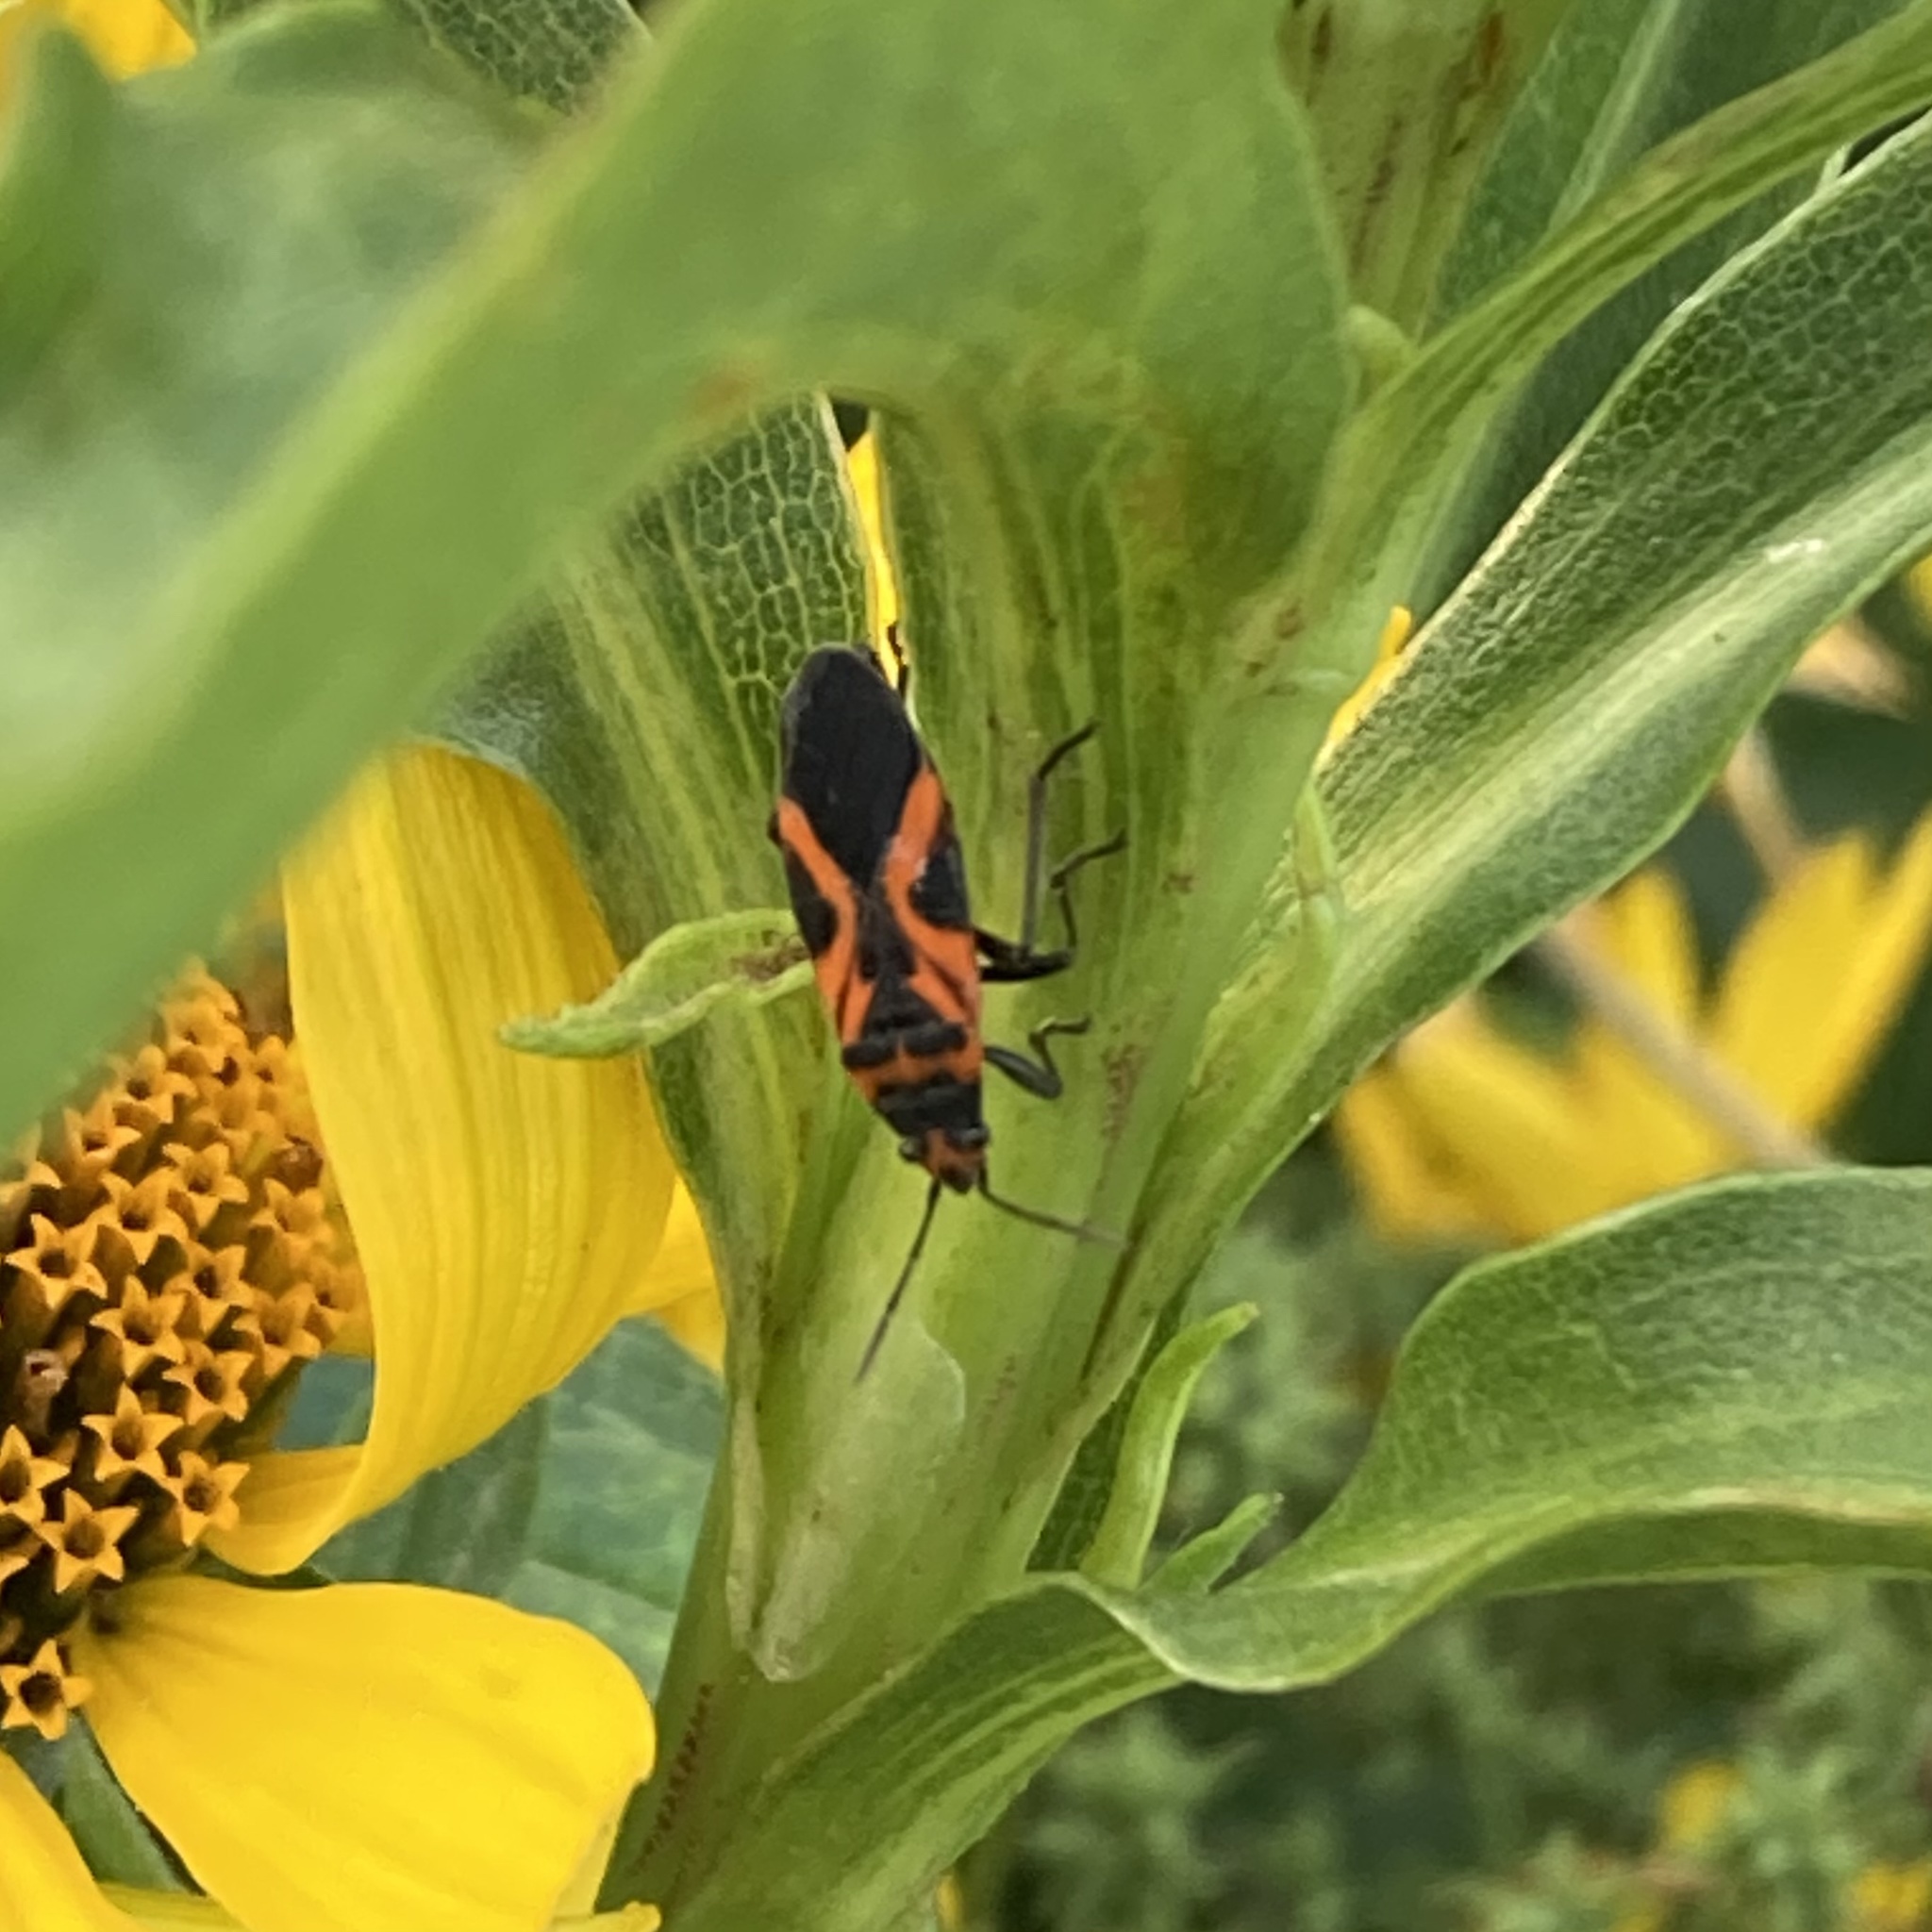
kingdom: Animalia
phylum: Arthropoda
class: Insecta
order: Hemiptera
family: Lygaeidae
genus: Lygaeus
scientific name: Lygaeus turcicus
